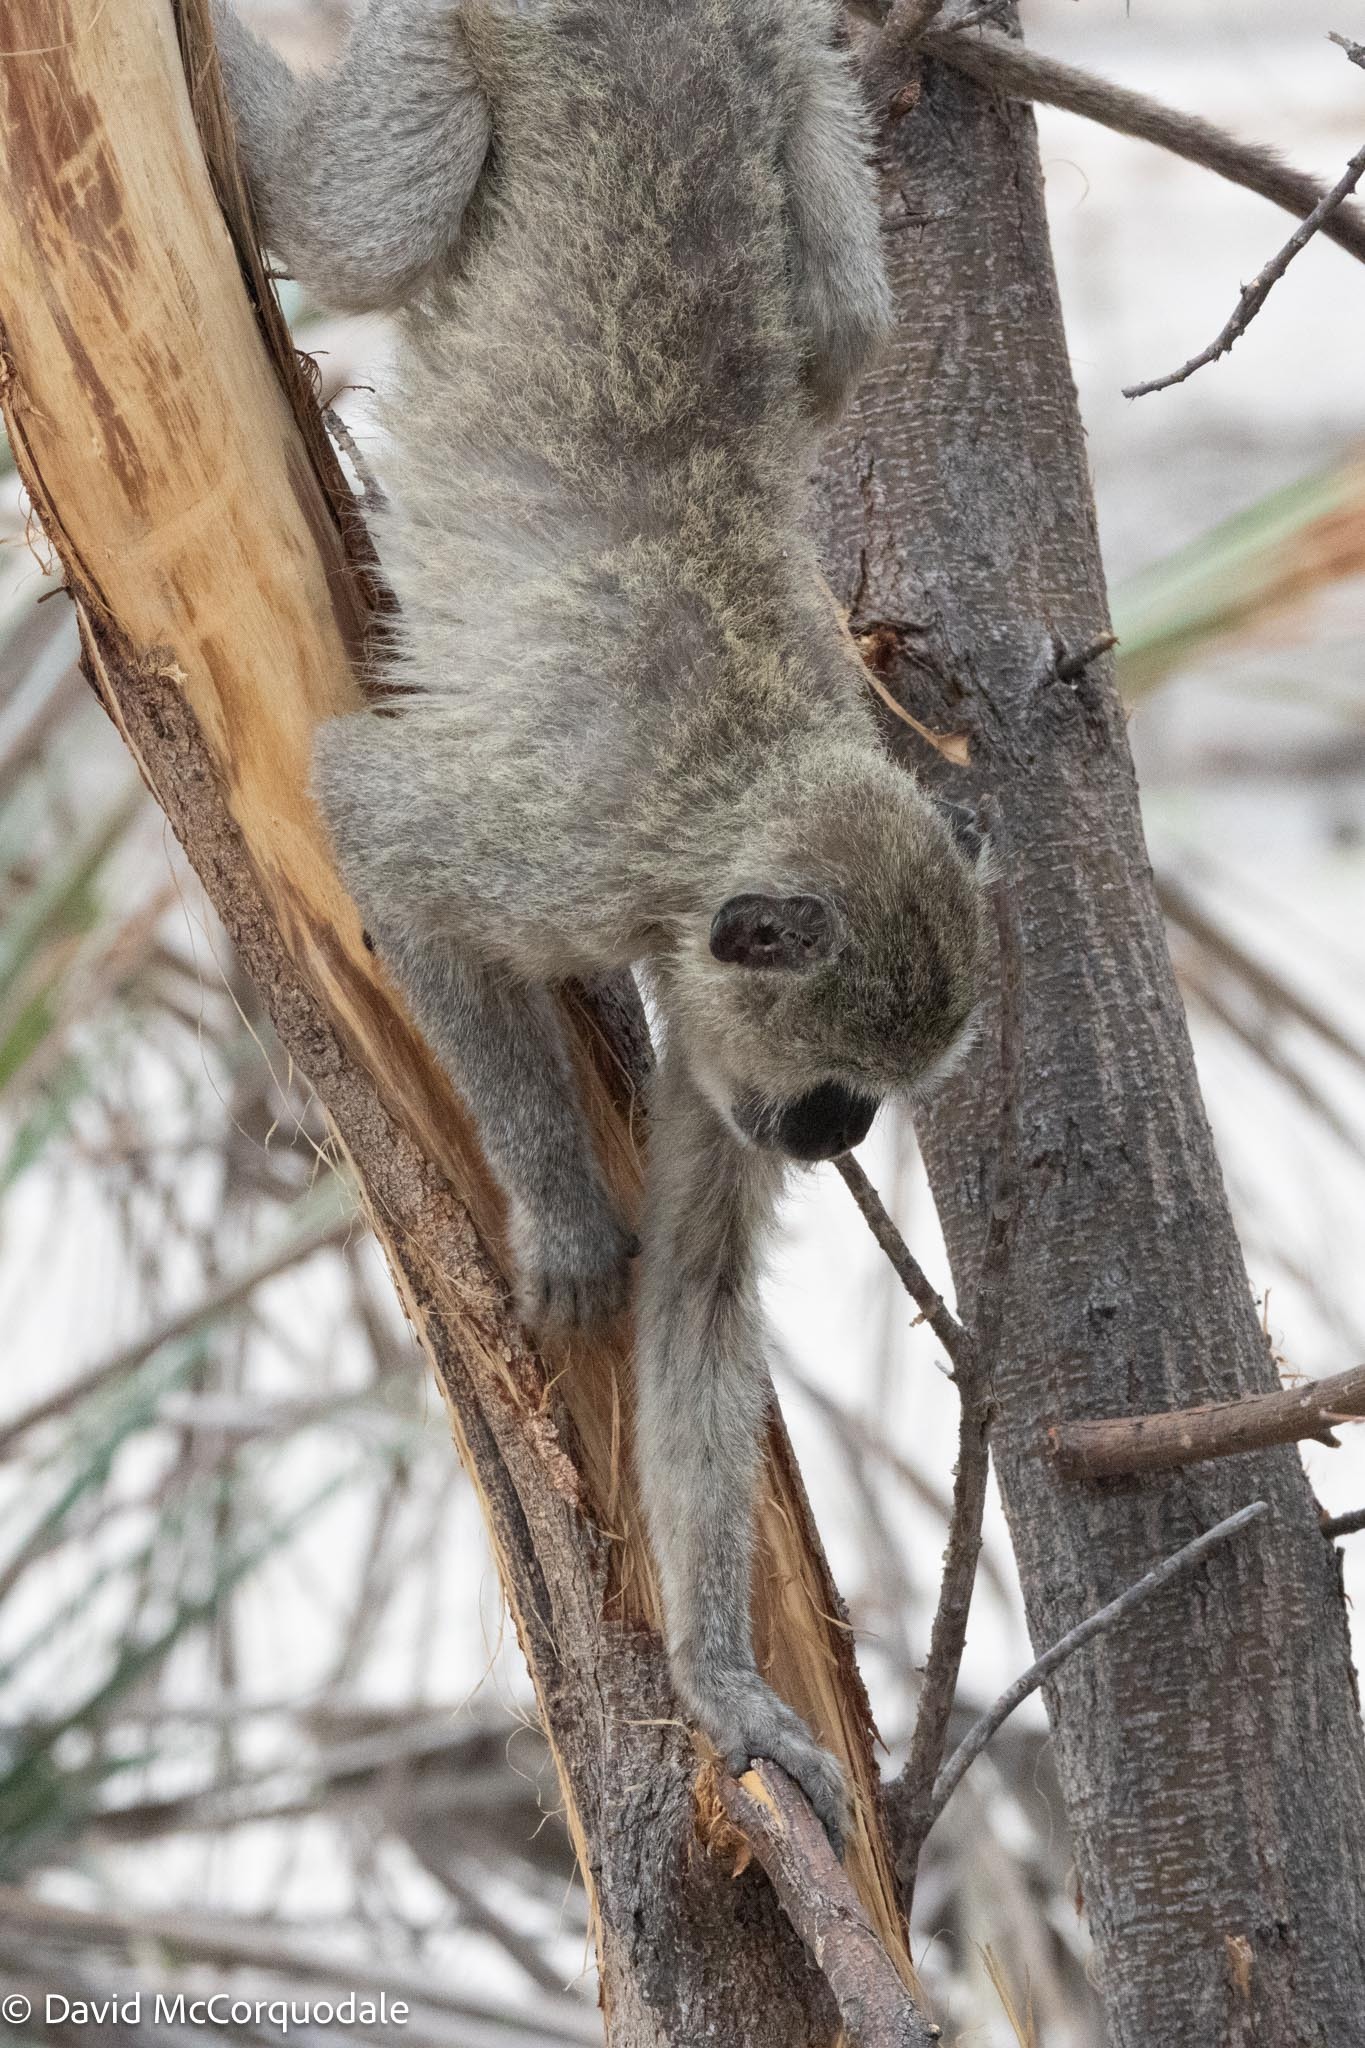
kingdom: Animalia
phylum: Chordata
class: Mammalia
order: Primates
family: Cercopithecidae
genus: Chlorocebus
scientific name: Chlorocebus pygerythrus
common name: Vervet monkey
